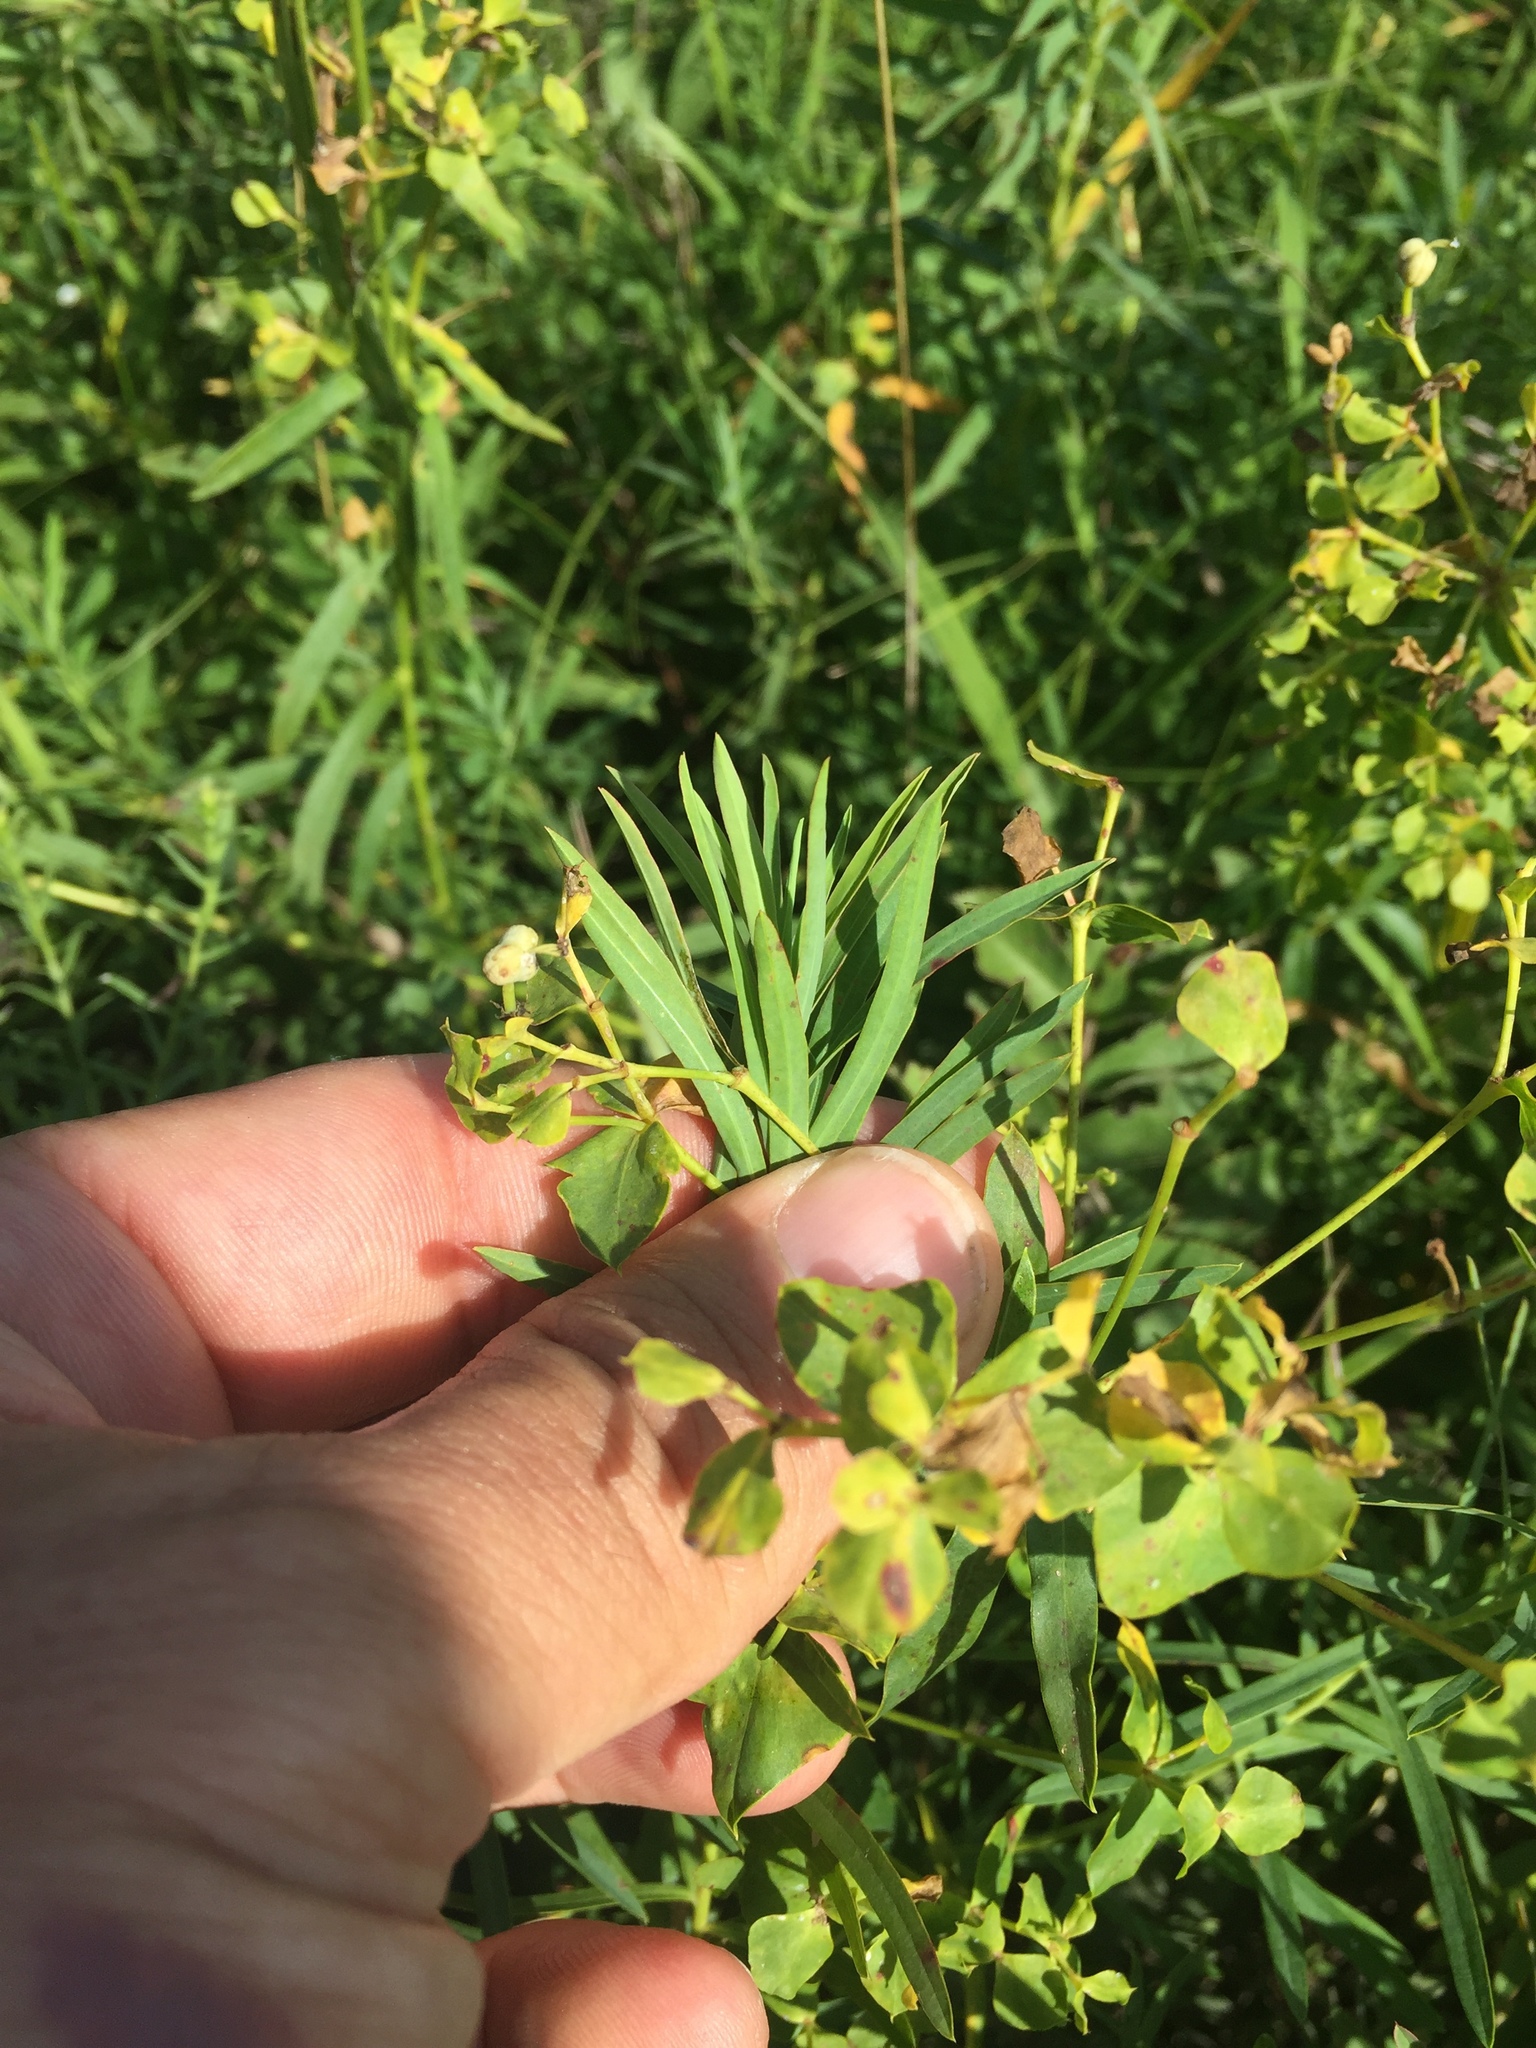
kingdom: Plantae
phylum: Tracheophyta
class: Magnoliopsida
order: Malpighiales
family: Euphorbiaceae
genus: Euphorbia
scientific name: Euphorbia virgata
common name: Leafy spurge
